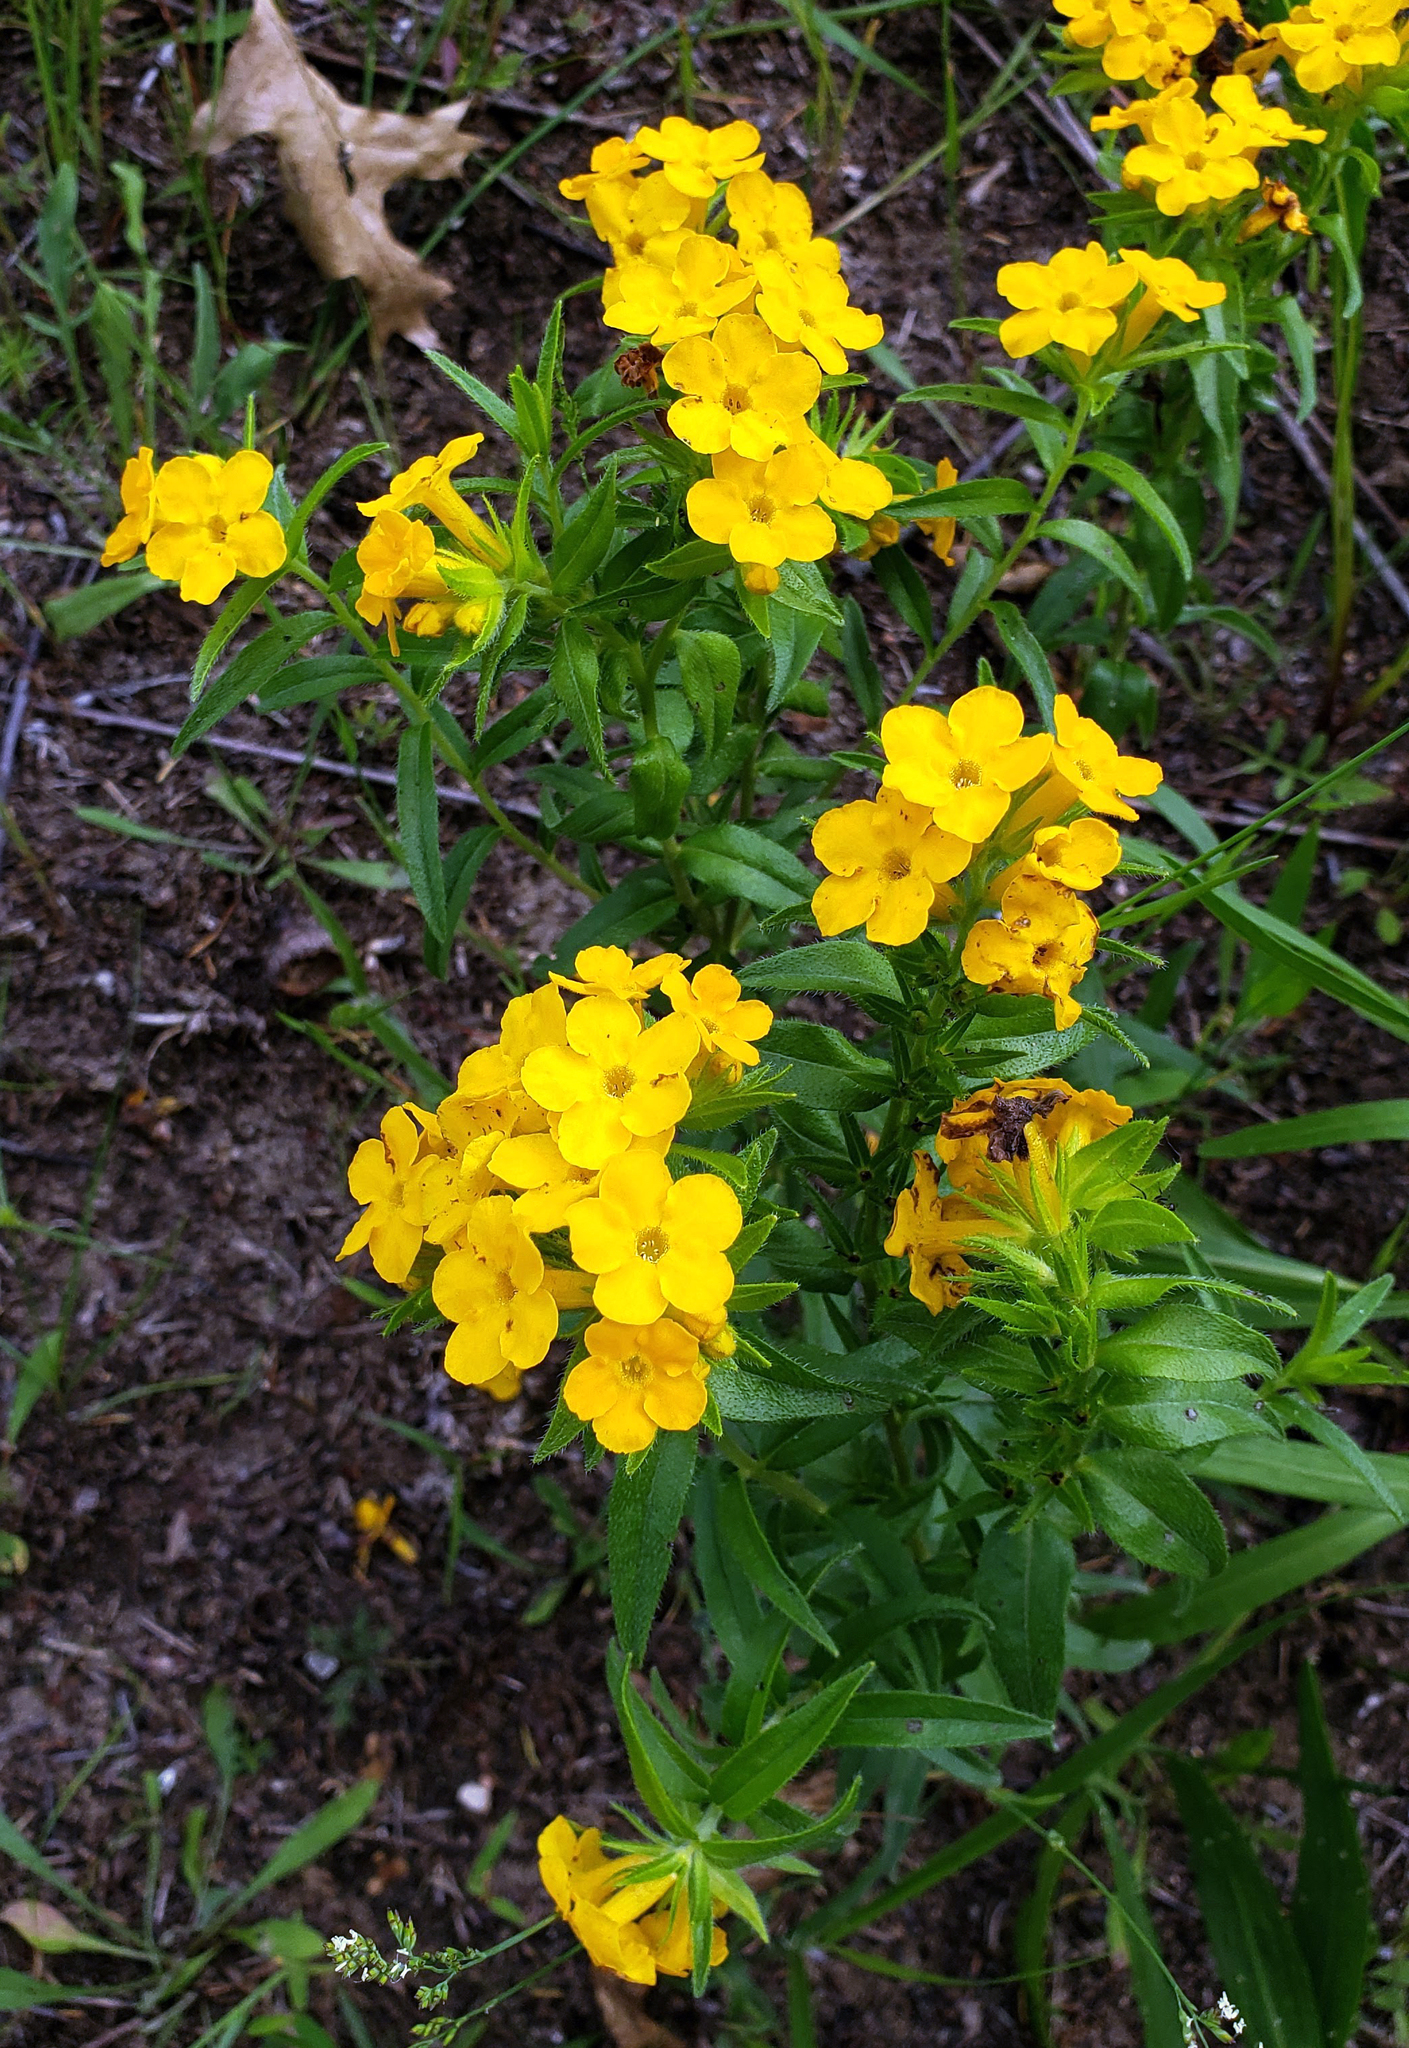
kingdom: Plantae
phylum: Tracheophyta
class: Magnoliopsida
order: Boraginales
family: Boraginaceae
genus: Lithospermum
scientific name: Lithospermum caroliniense
